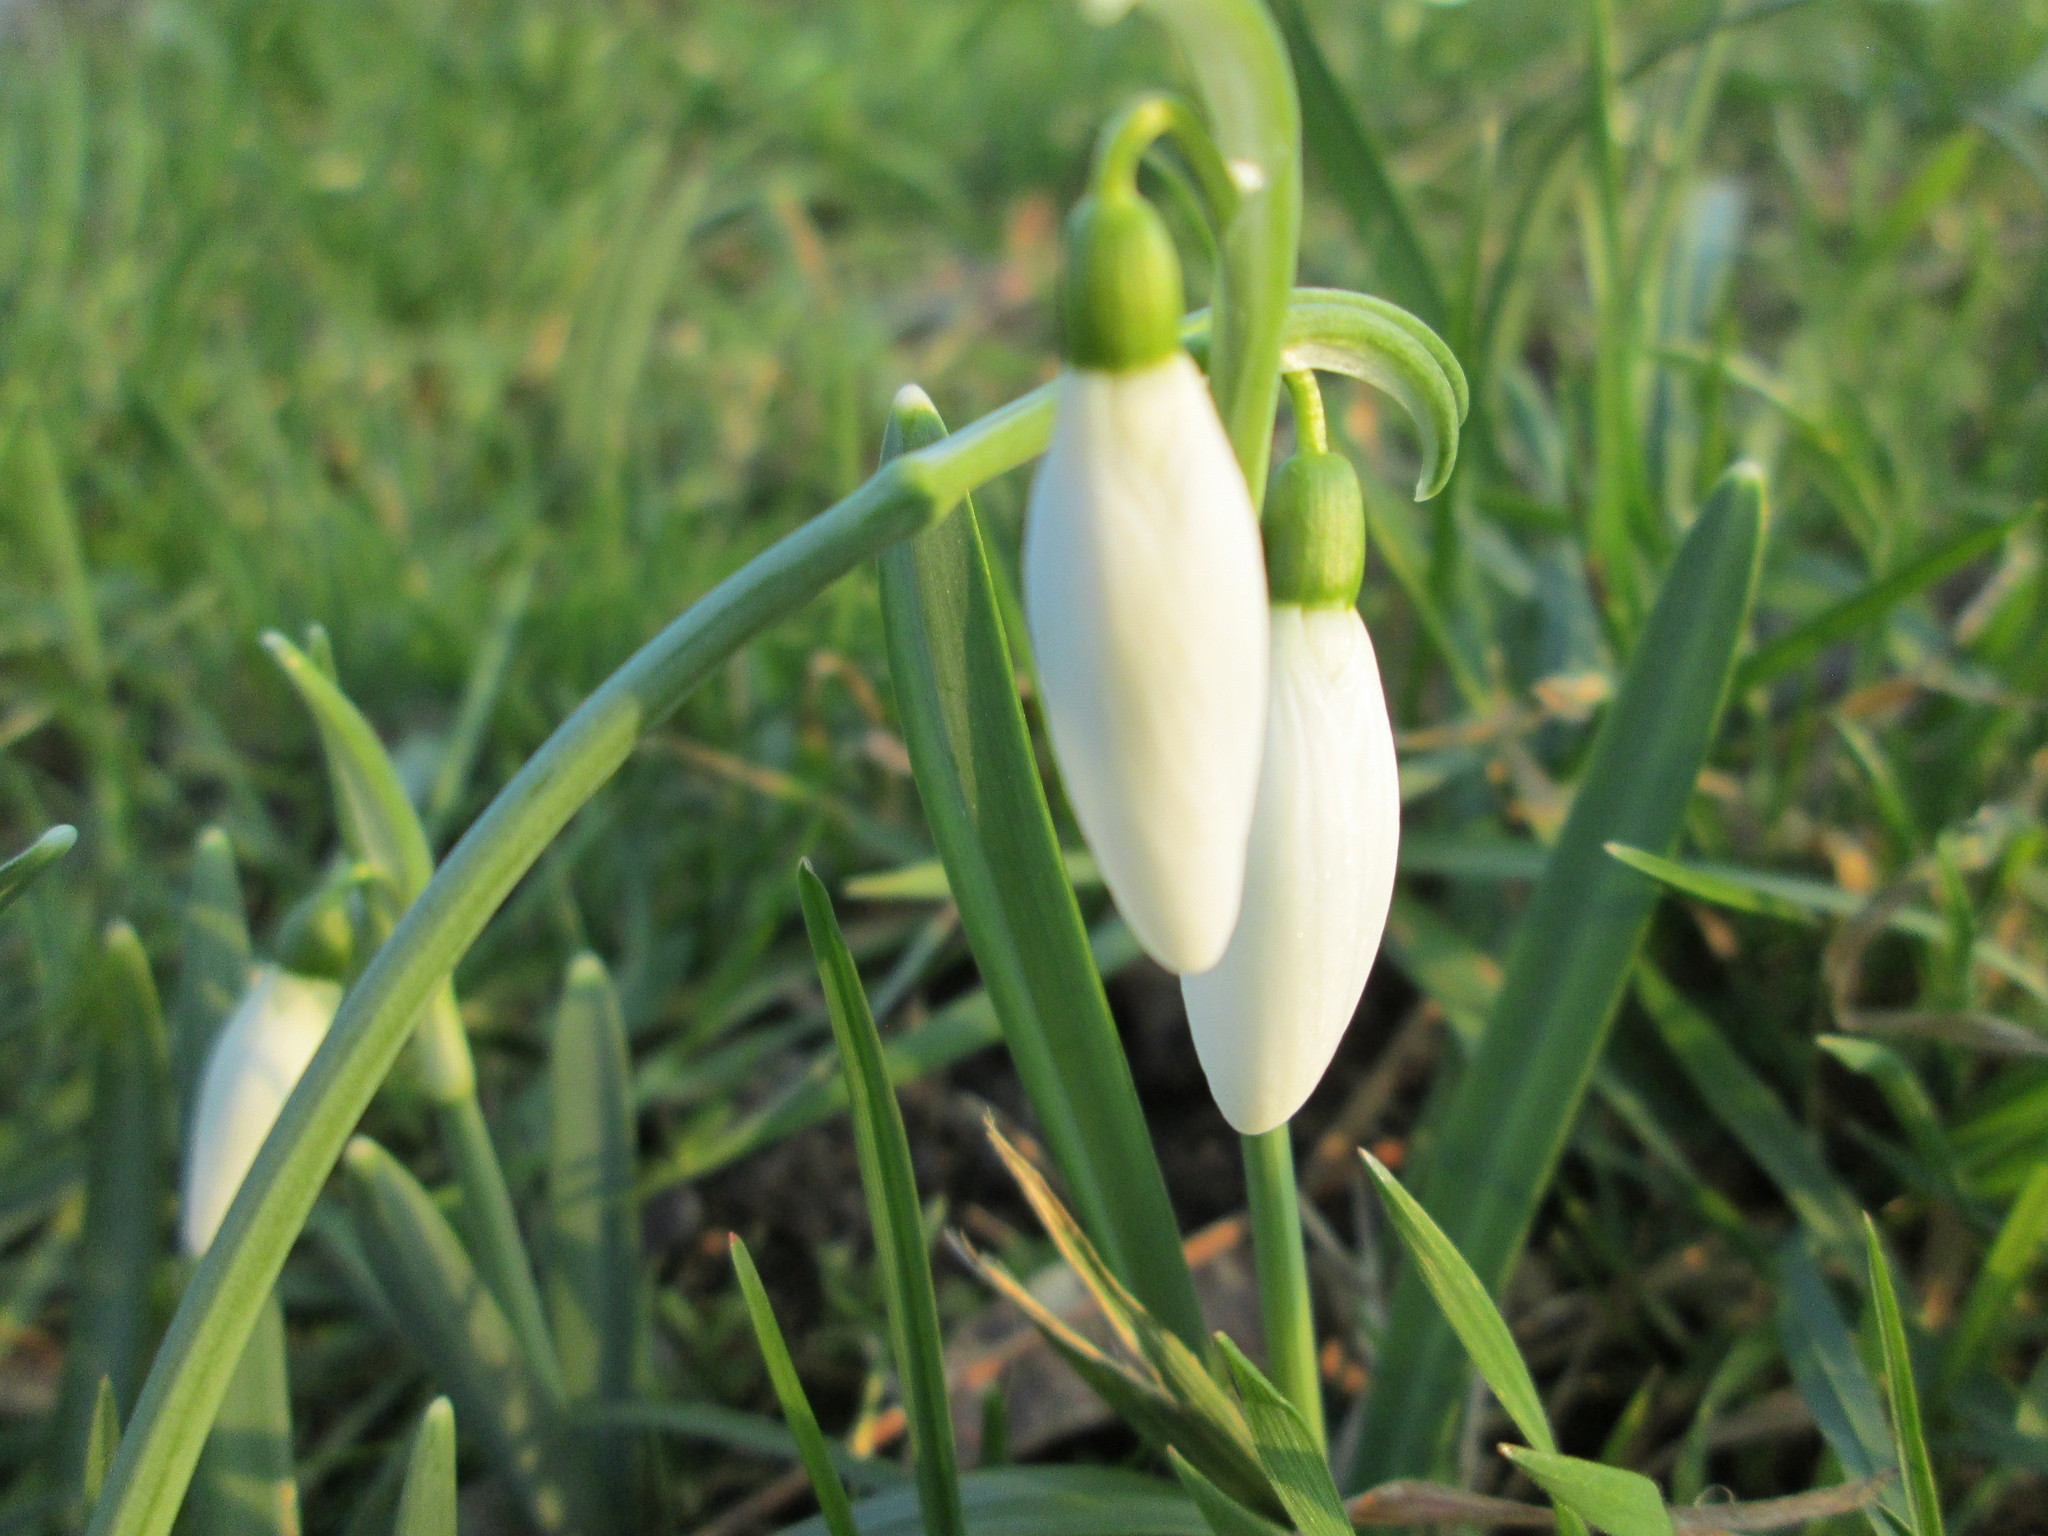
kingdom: Plantae
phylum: Tracheophyta
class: Liliopsida
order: Asparagales
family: Amaryllidaceae
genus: Galanthus
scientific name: Galanthus nivalis
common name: Snowdrop
